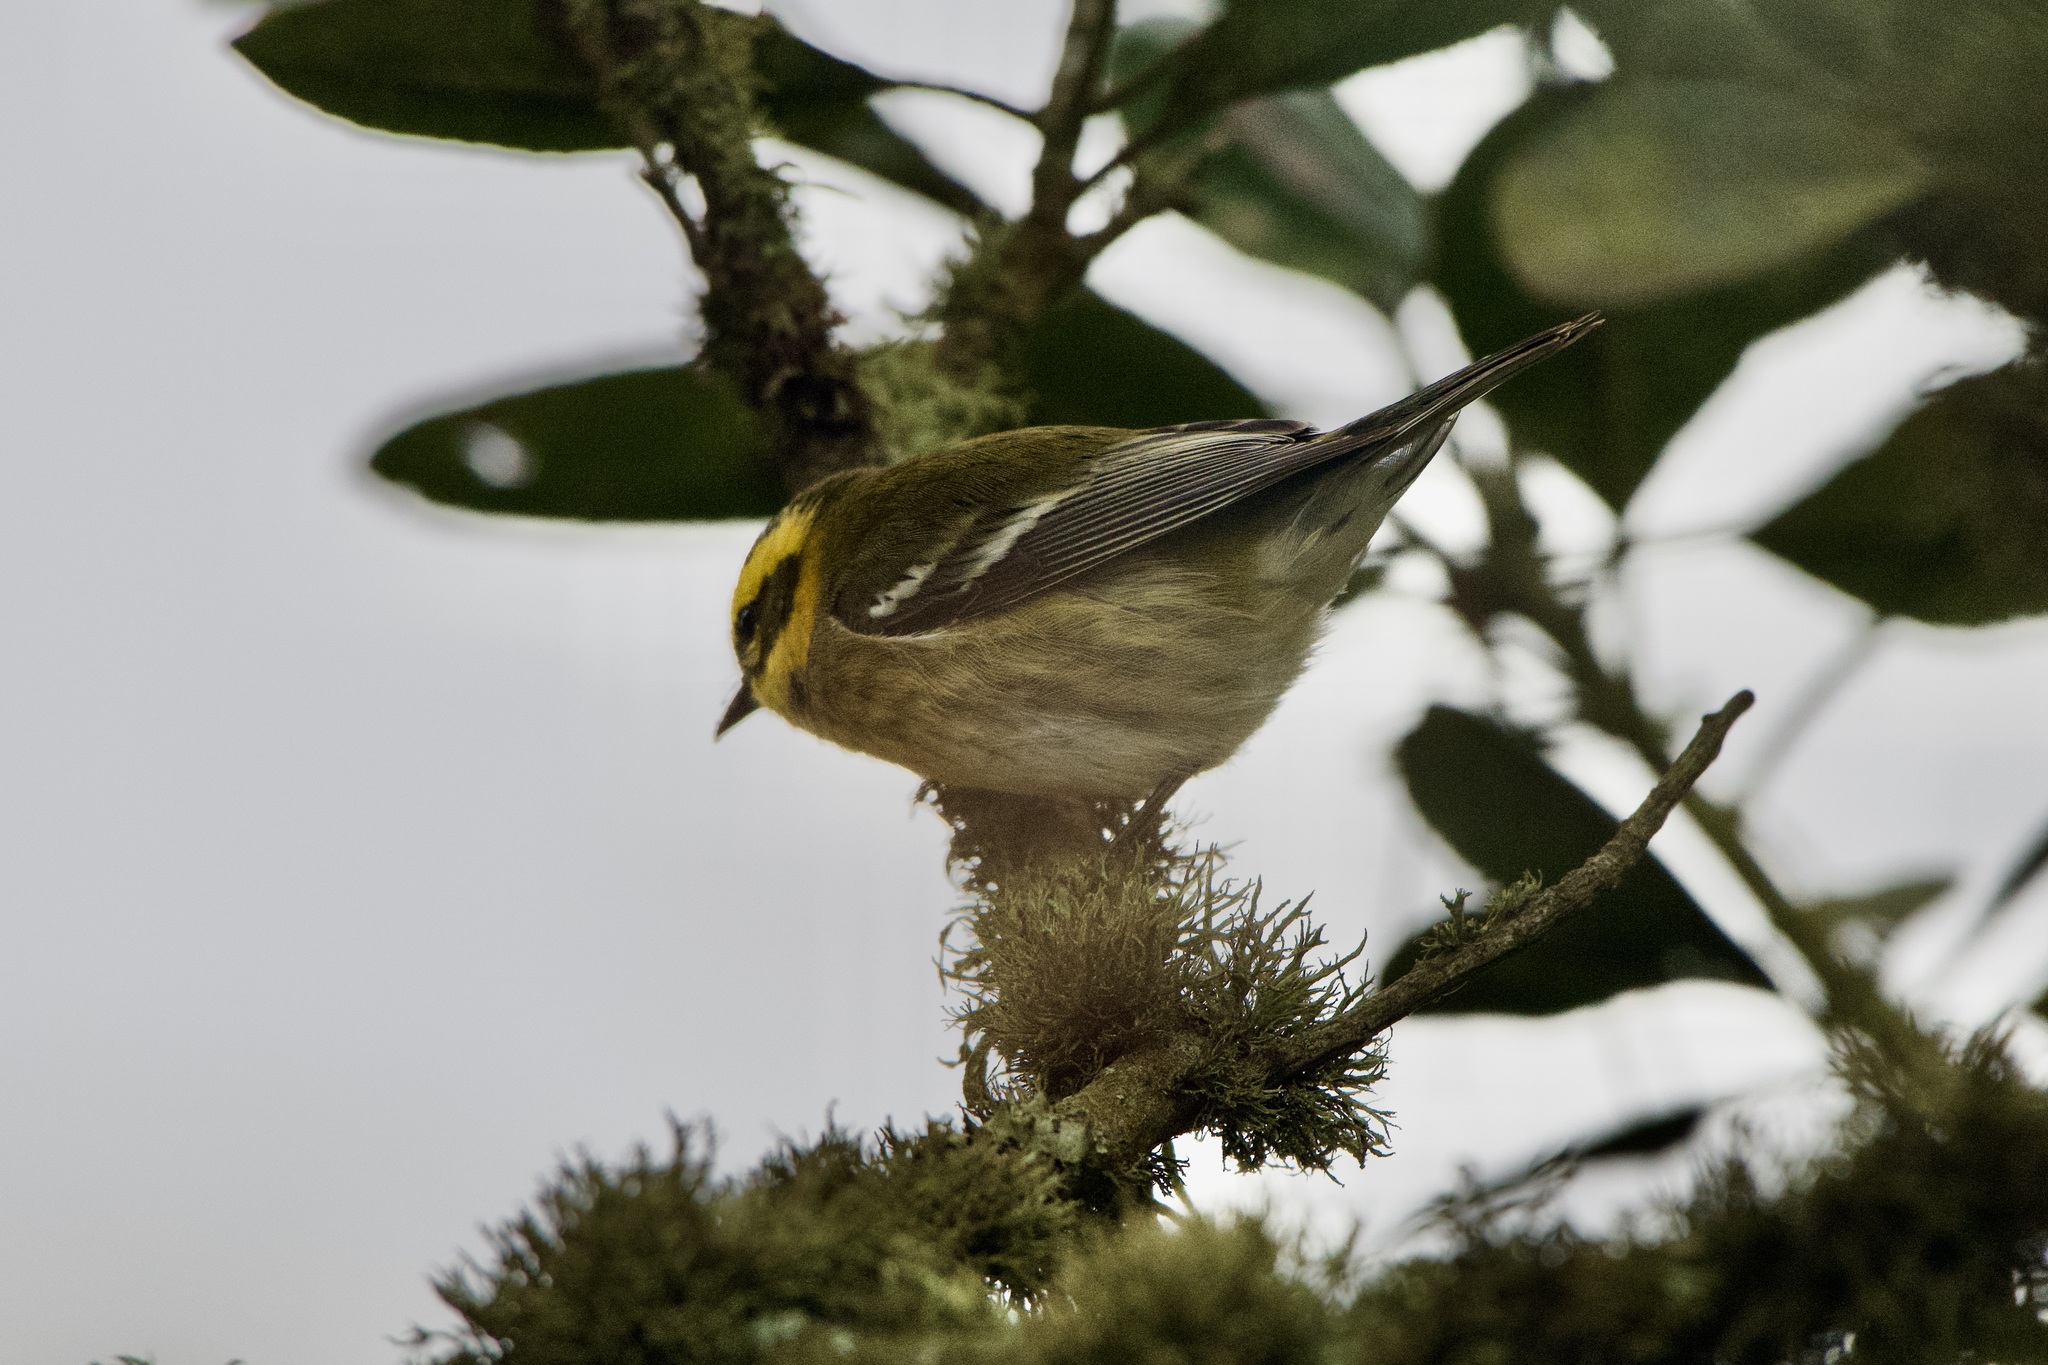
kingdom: Animalia
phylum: Chordata
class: Aves
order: Passeriformes
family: Parulidae
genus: Setophaga
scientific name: Setophaga townsendi
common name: Townsend's warbler
